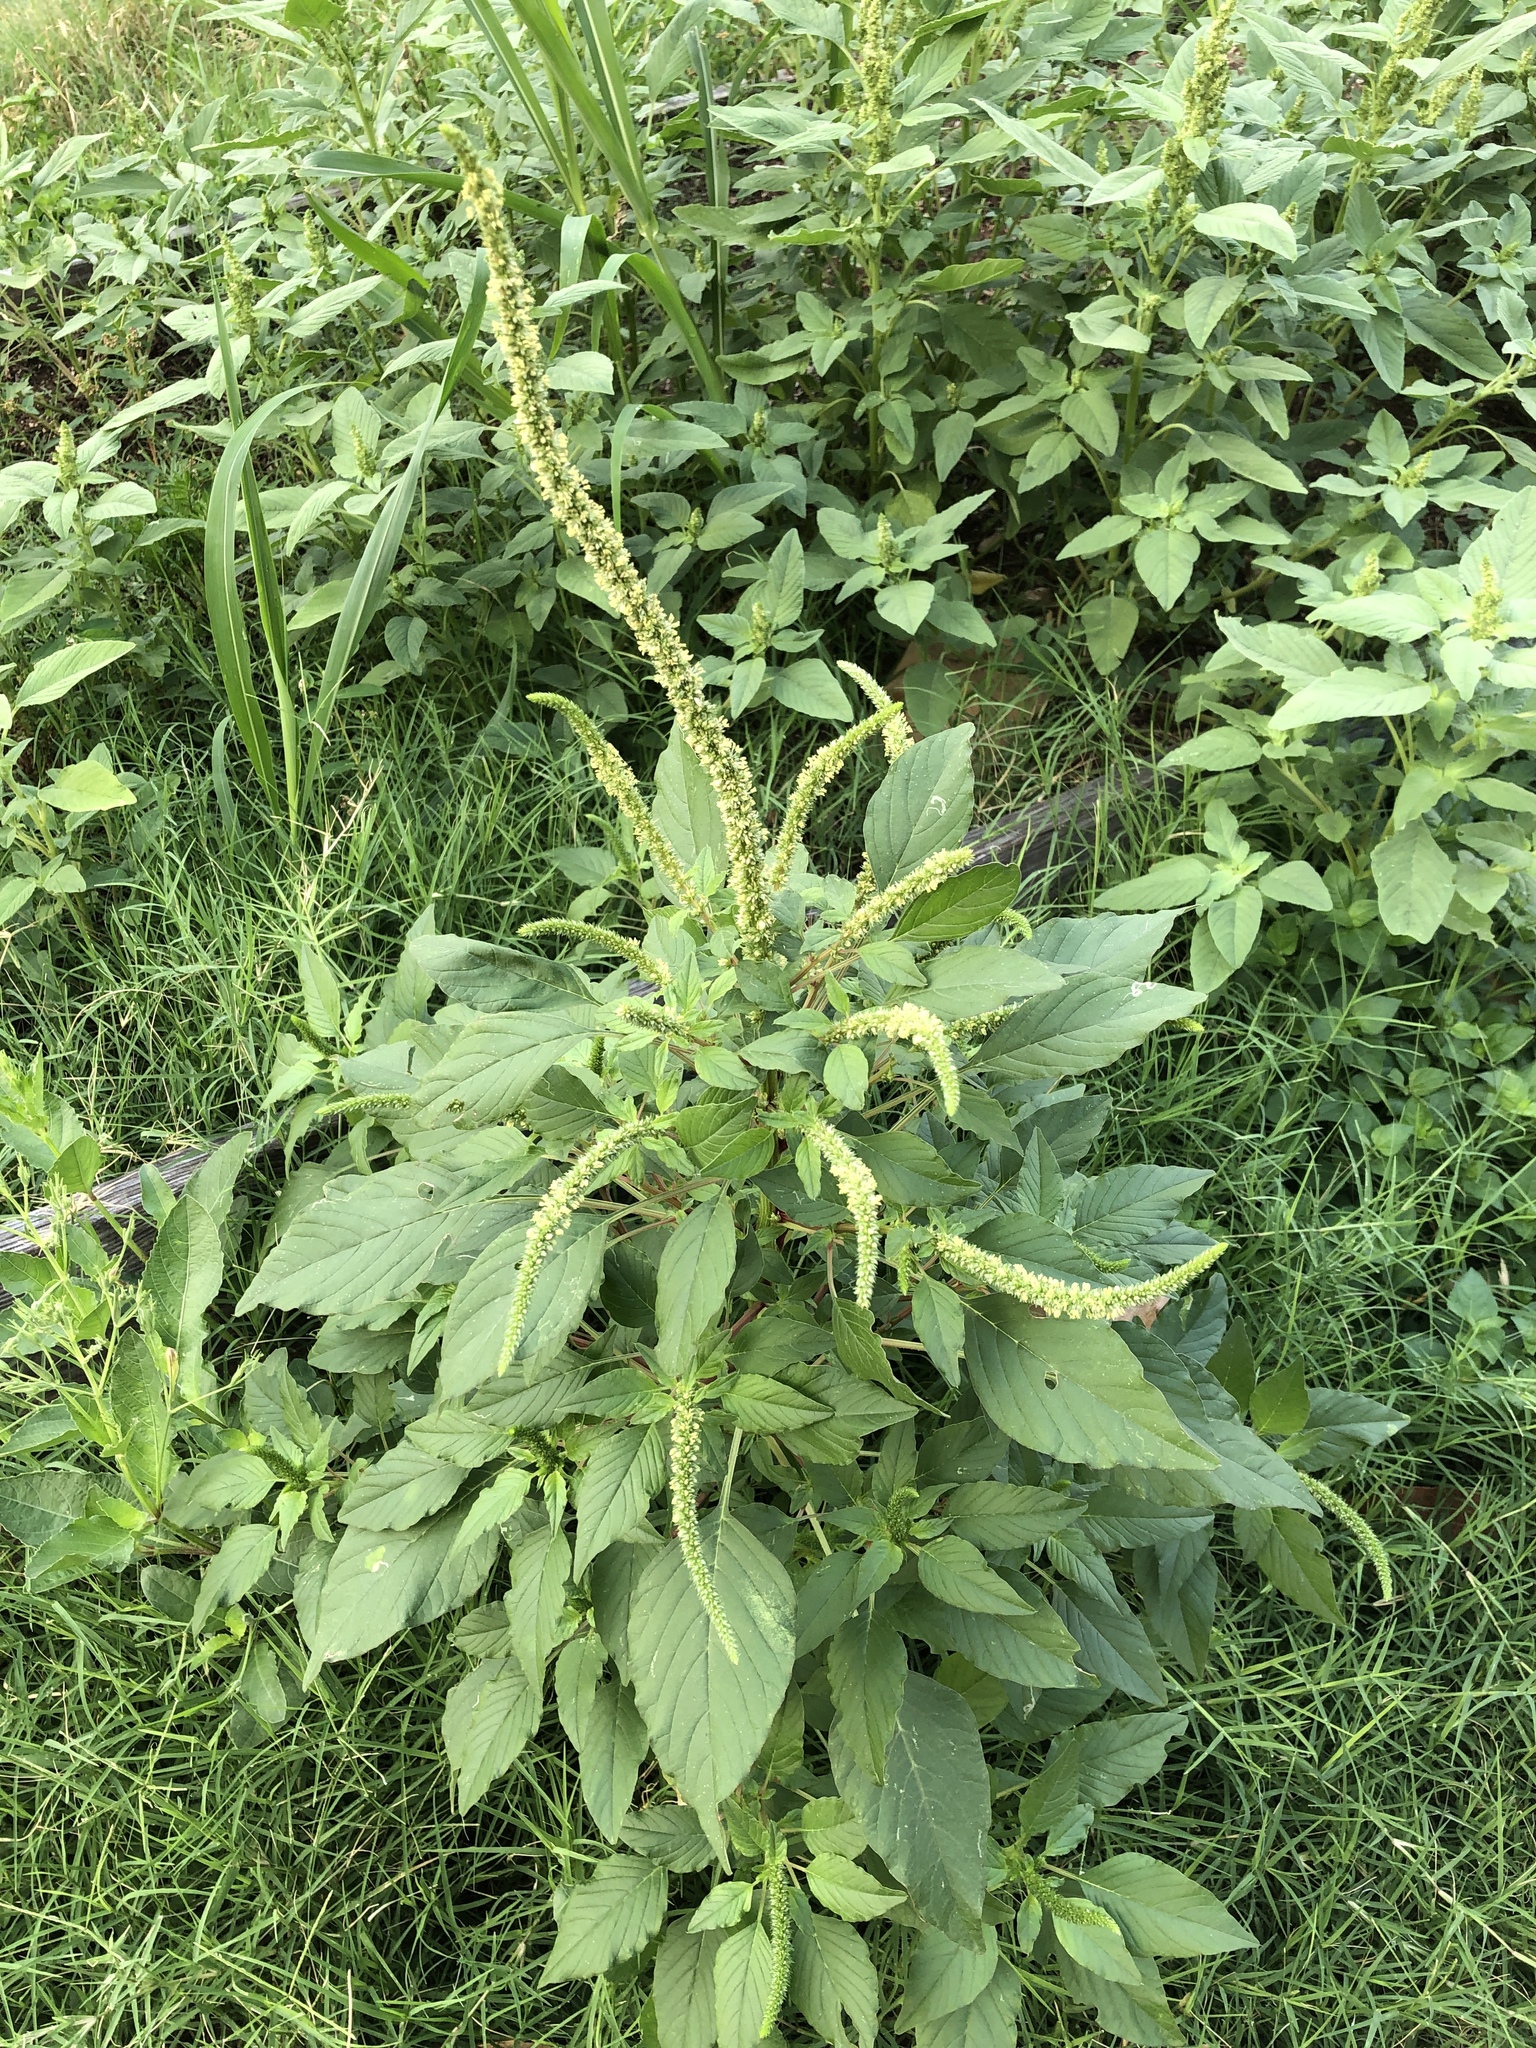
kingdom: Plantae
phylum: Tracheophyta
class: Magnoliopsida
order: Caryophyllales
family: Amaranthaceae
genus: Amaranthus
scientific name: Amaranthus palmeri
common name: Dioecious amaranth
